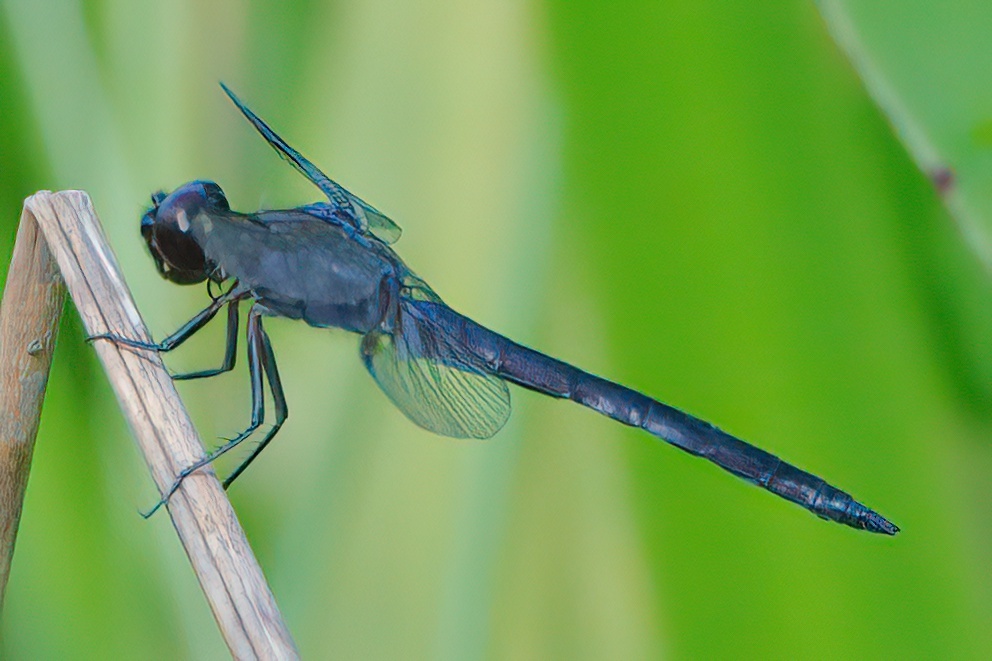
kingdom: Animalia
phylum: Arthropoda
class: Insecta
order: Odonata
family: Libellulidae
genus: Libellula
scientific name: Libellula incesta
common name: Slaty skimmer
